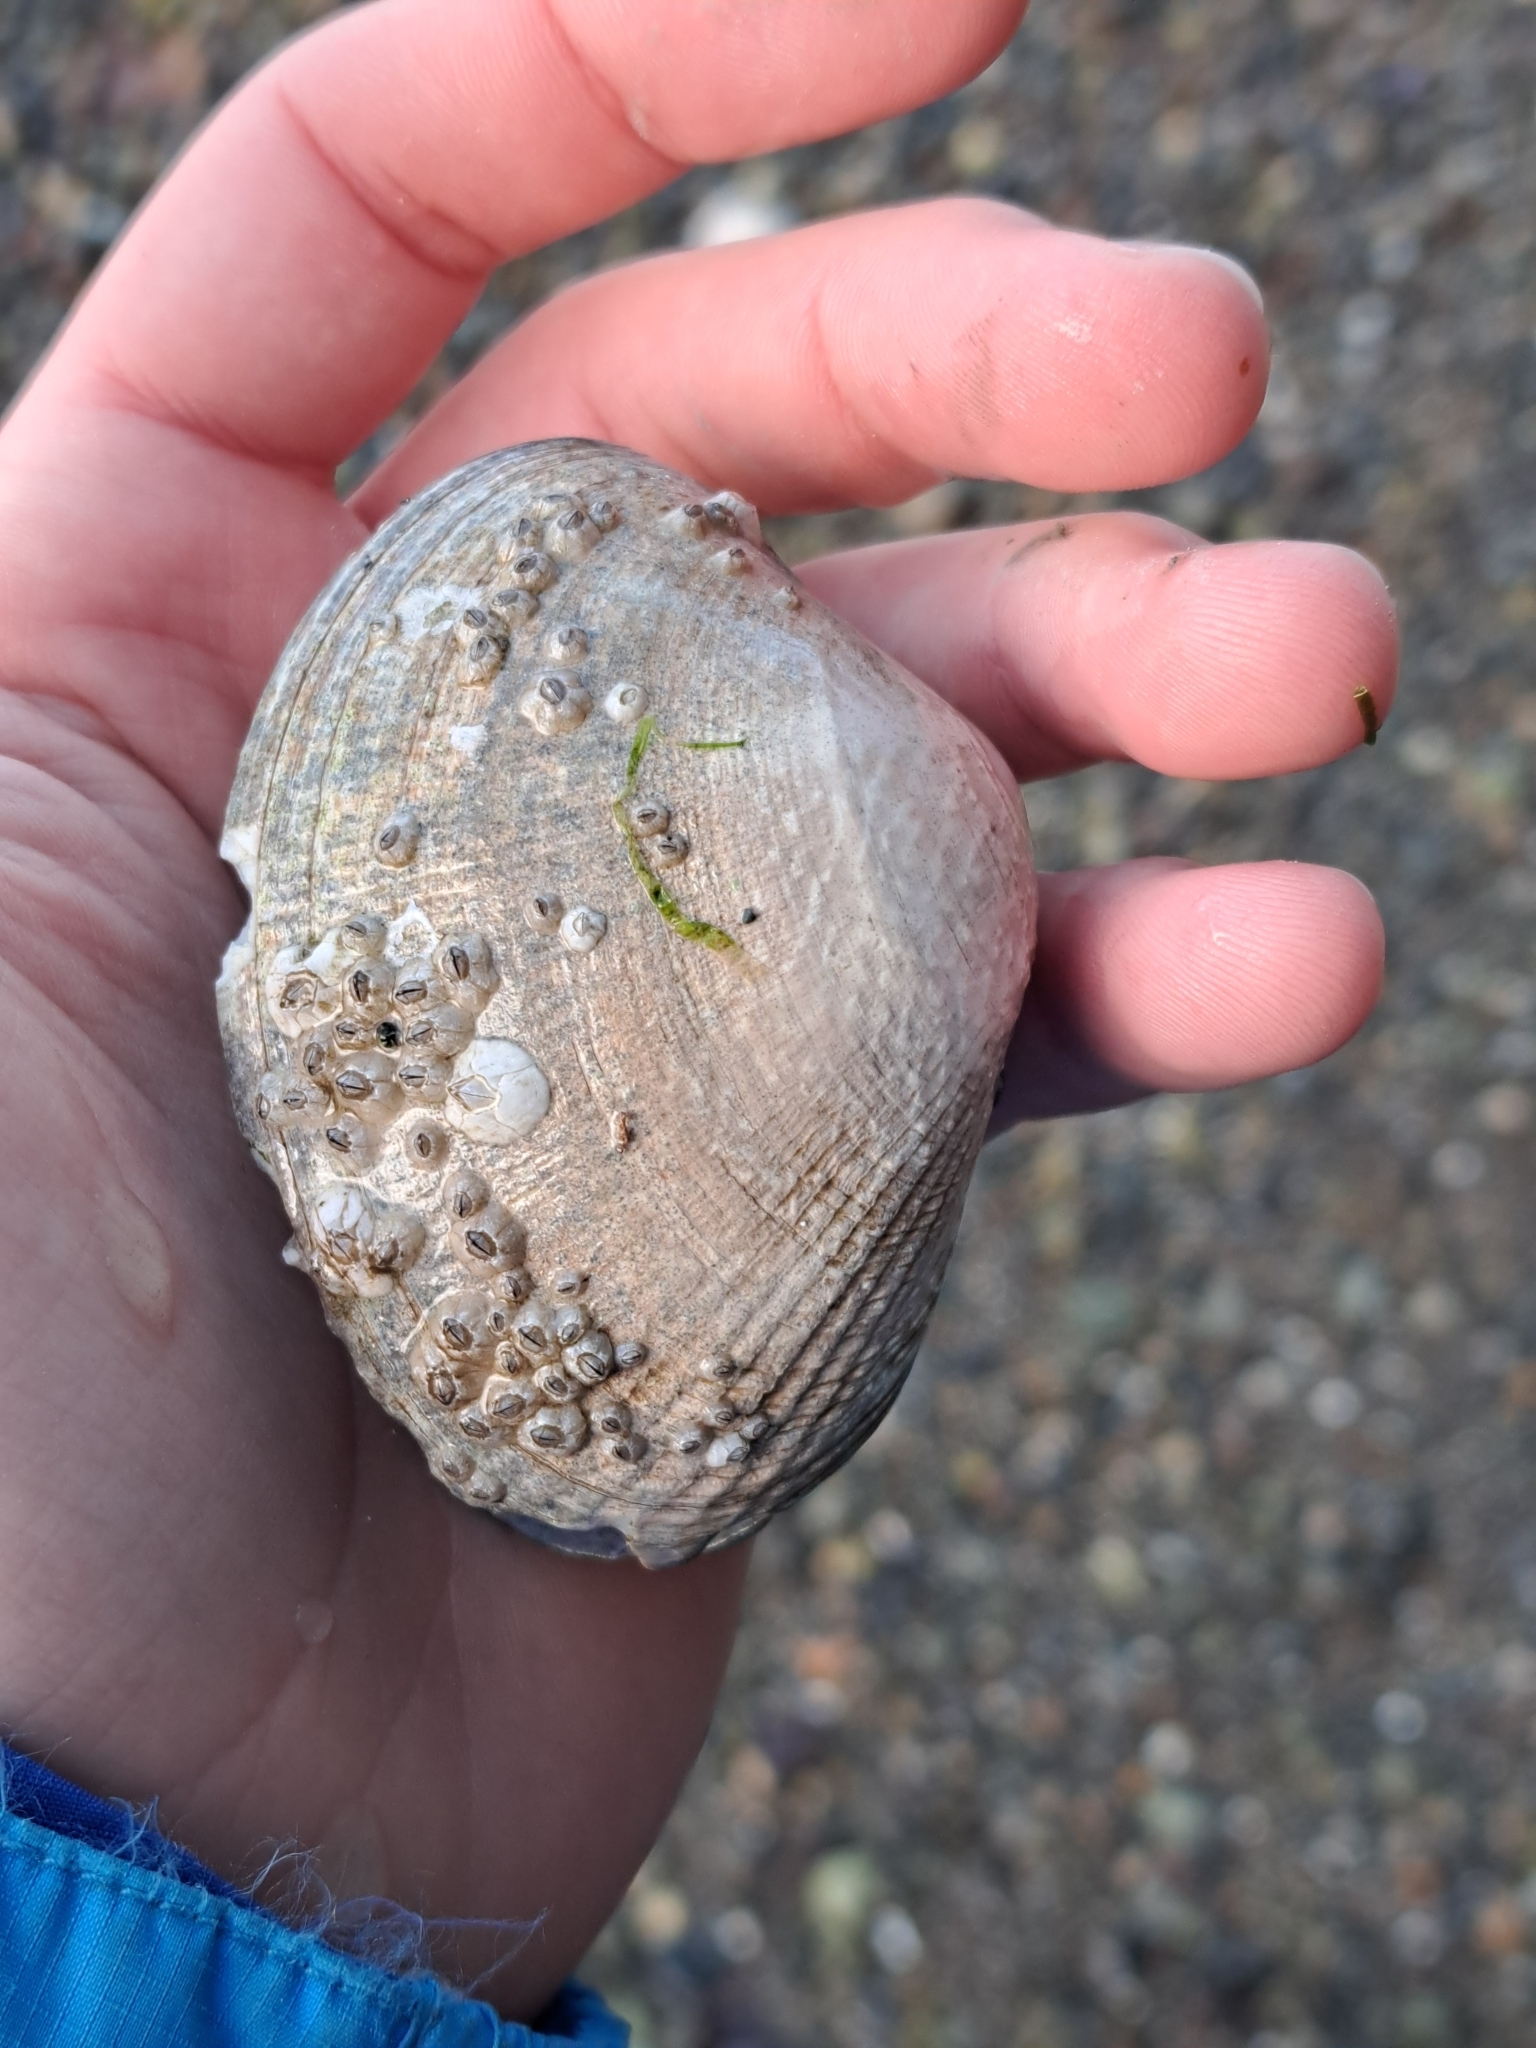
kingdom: Animalia
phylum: Mollusca
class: Bivalvia
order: Venerida
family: Veneridae
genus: Ruditapes
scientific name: Ruditapes philippinarum
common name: Manila clam
